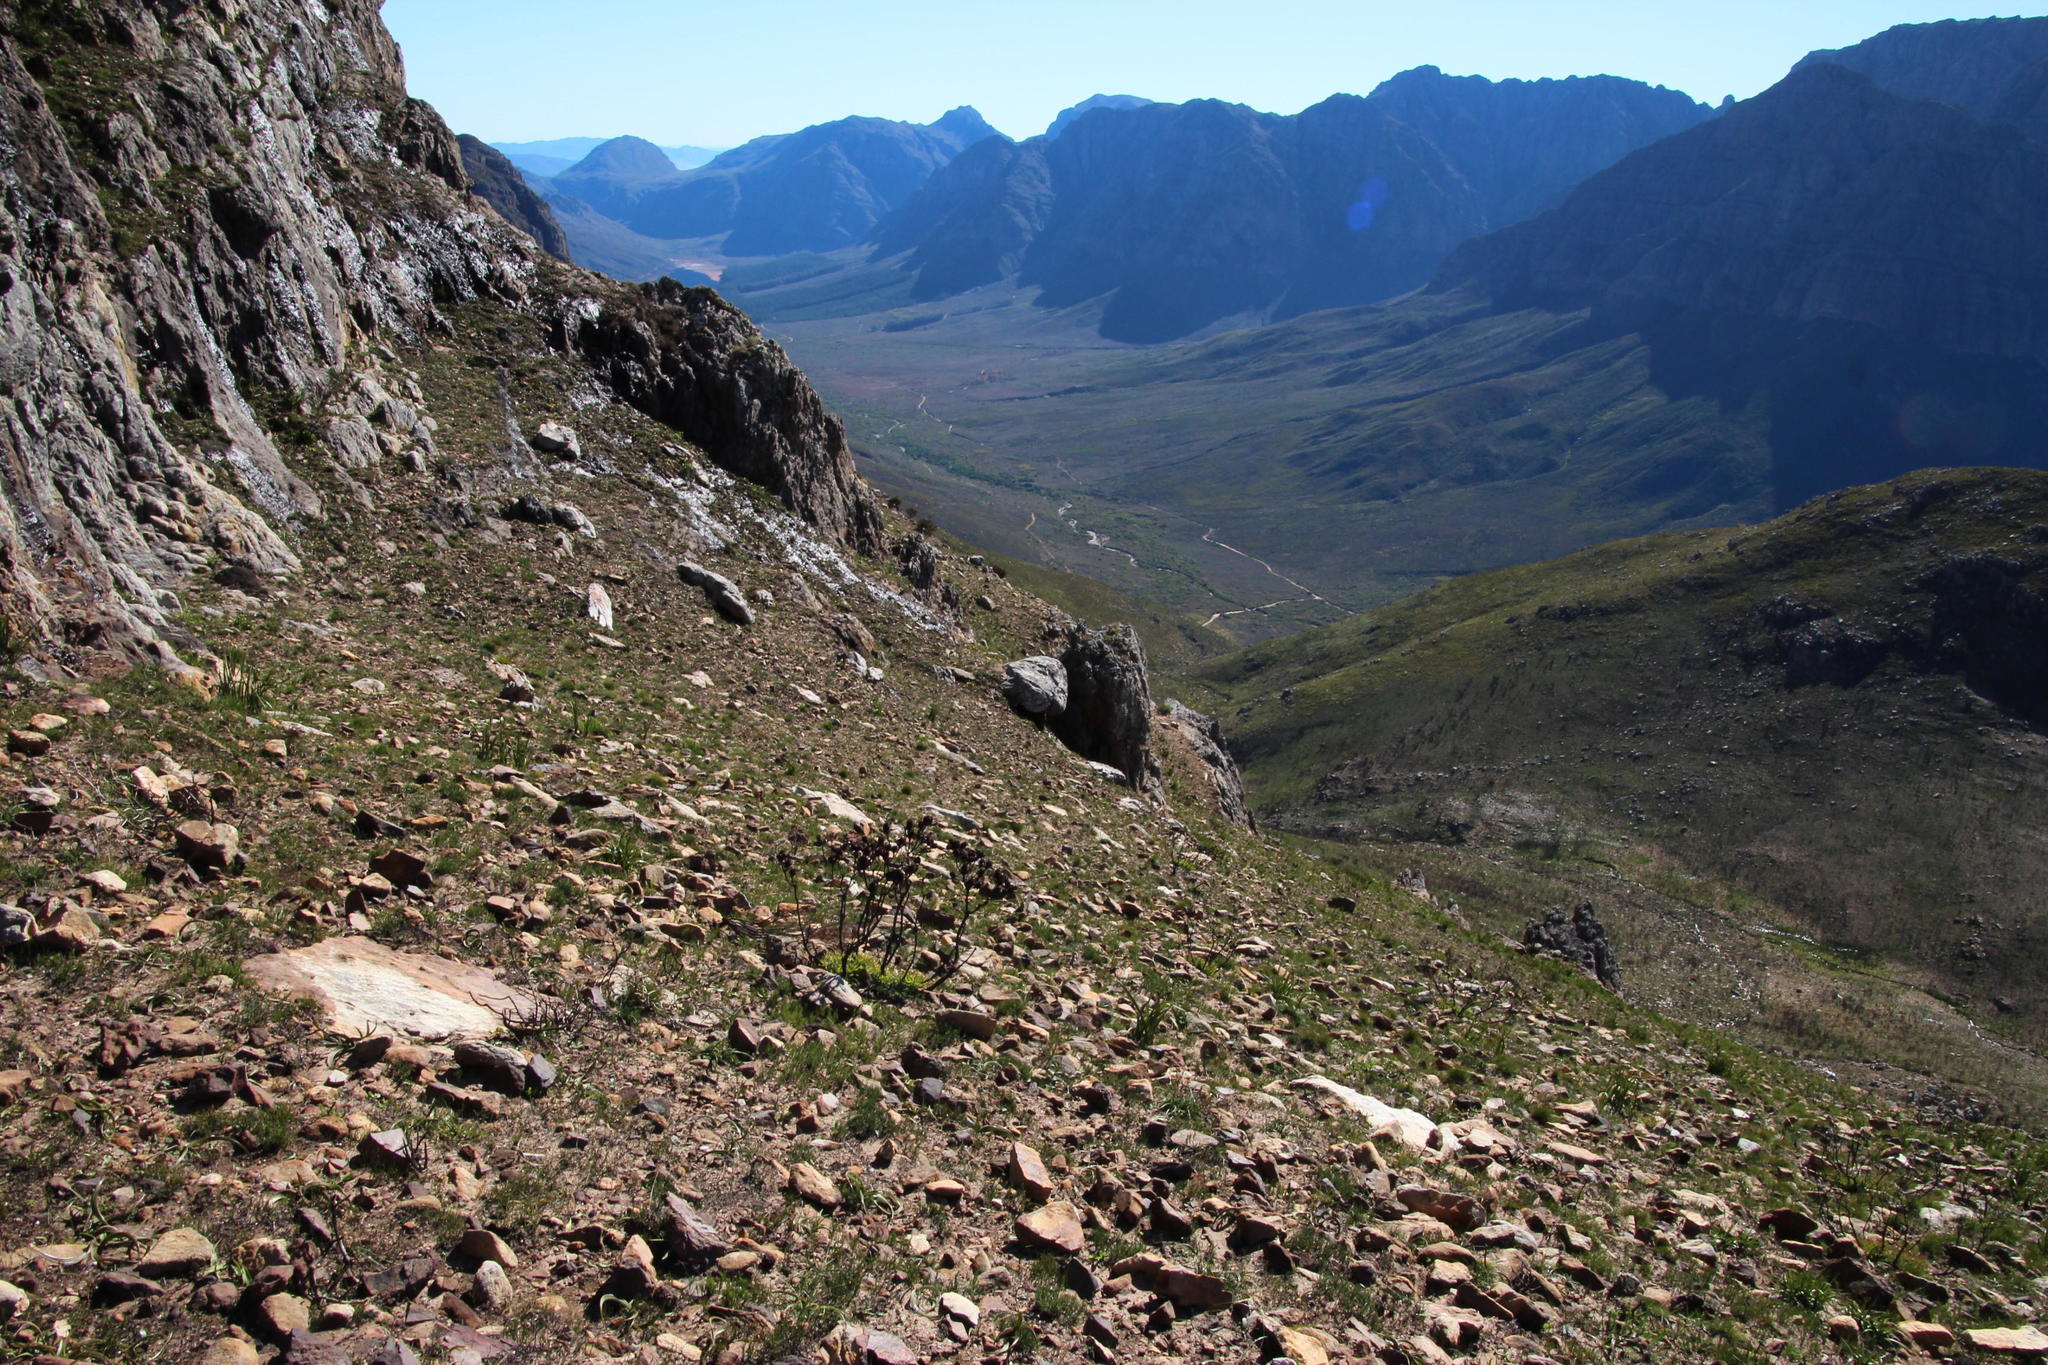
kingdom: Plantae
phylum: Tracheophyta
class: Magnoliopsida
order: Proteales
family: Proteaceae
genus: Leucadendron
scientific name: Leucadendron spissifolium
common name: Spear-leaf conebush
